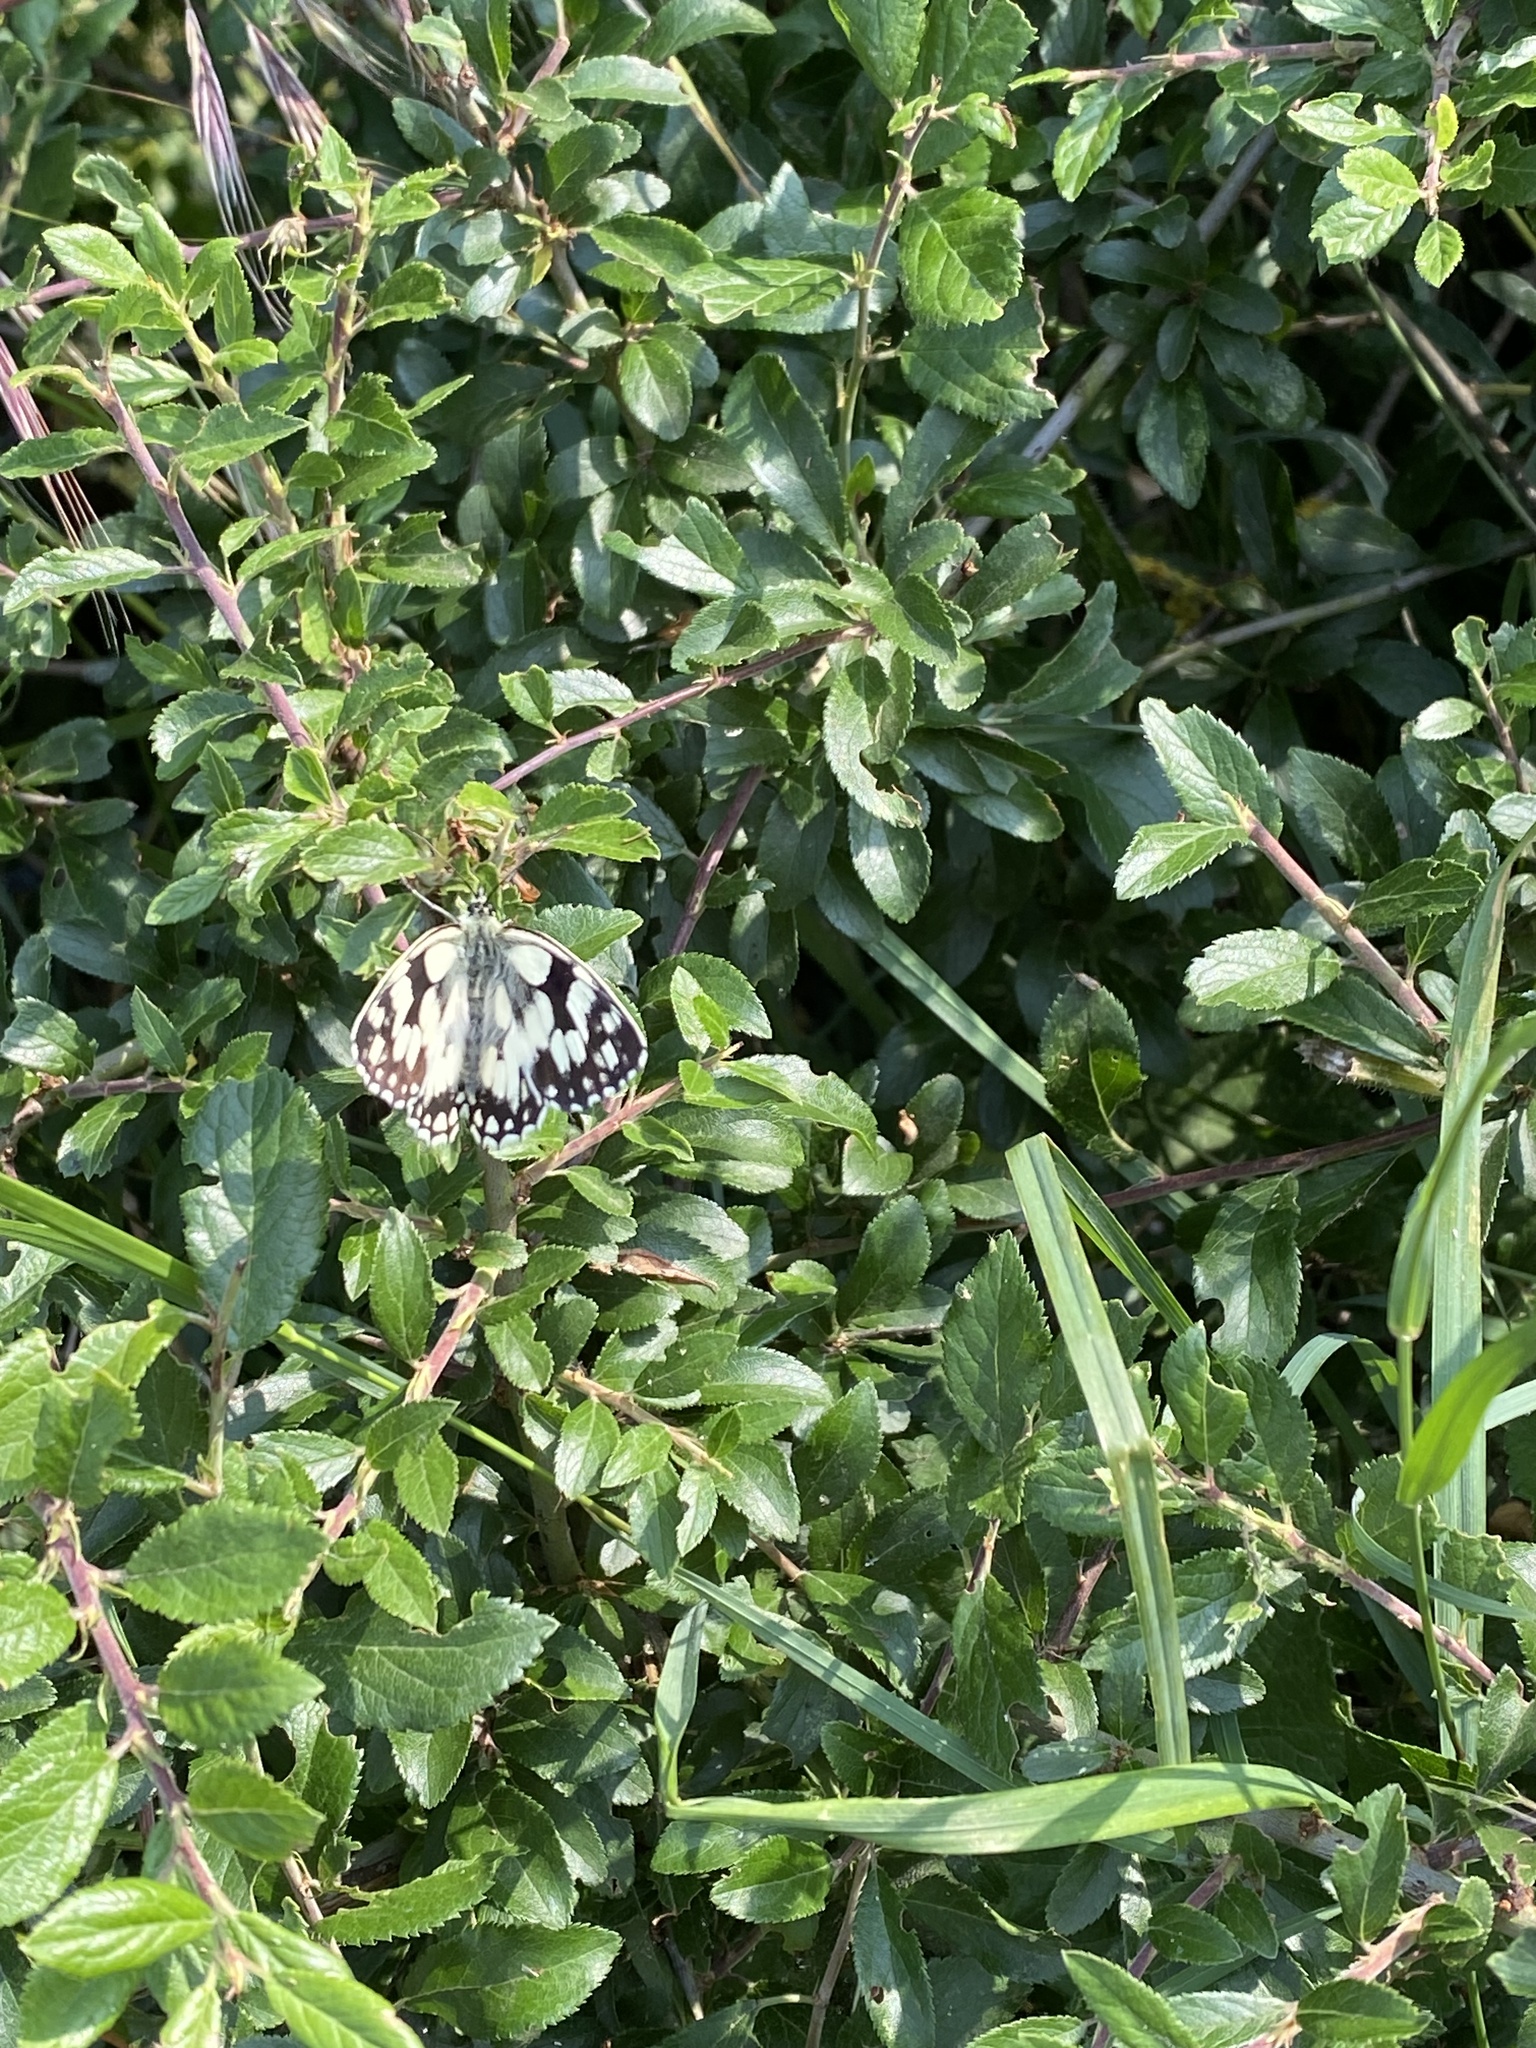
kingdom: Animalia
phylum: Arthropoda
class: Insecta
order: Lepidoptera
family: Nymphalidae
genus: Melanargia
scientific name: Melanargia galathea
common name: Marbled white
